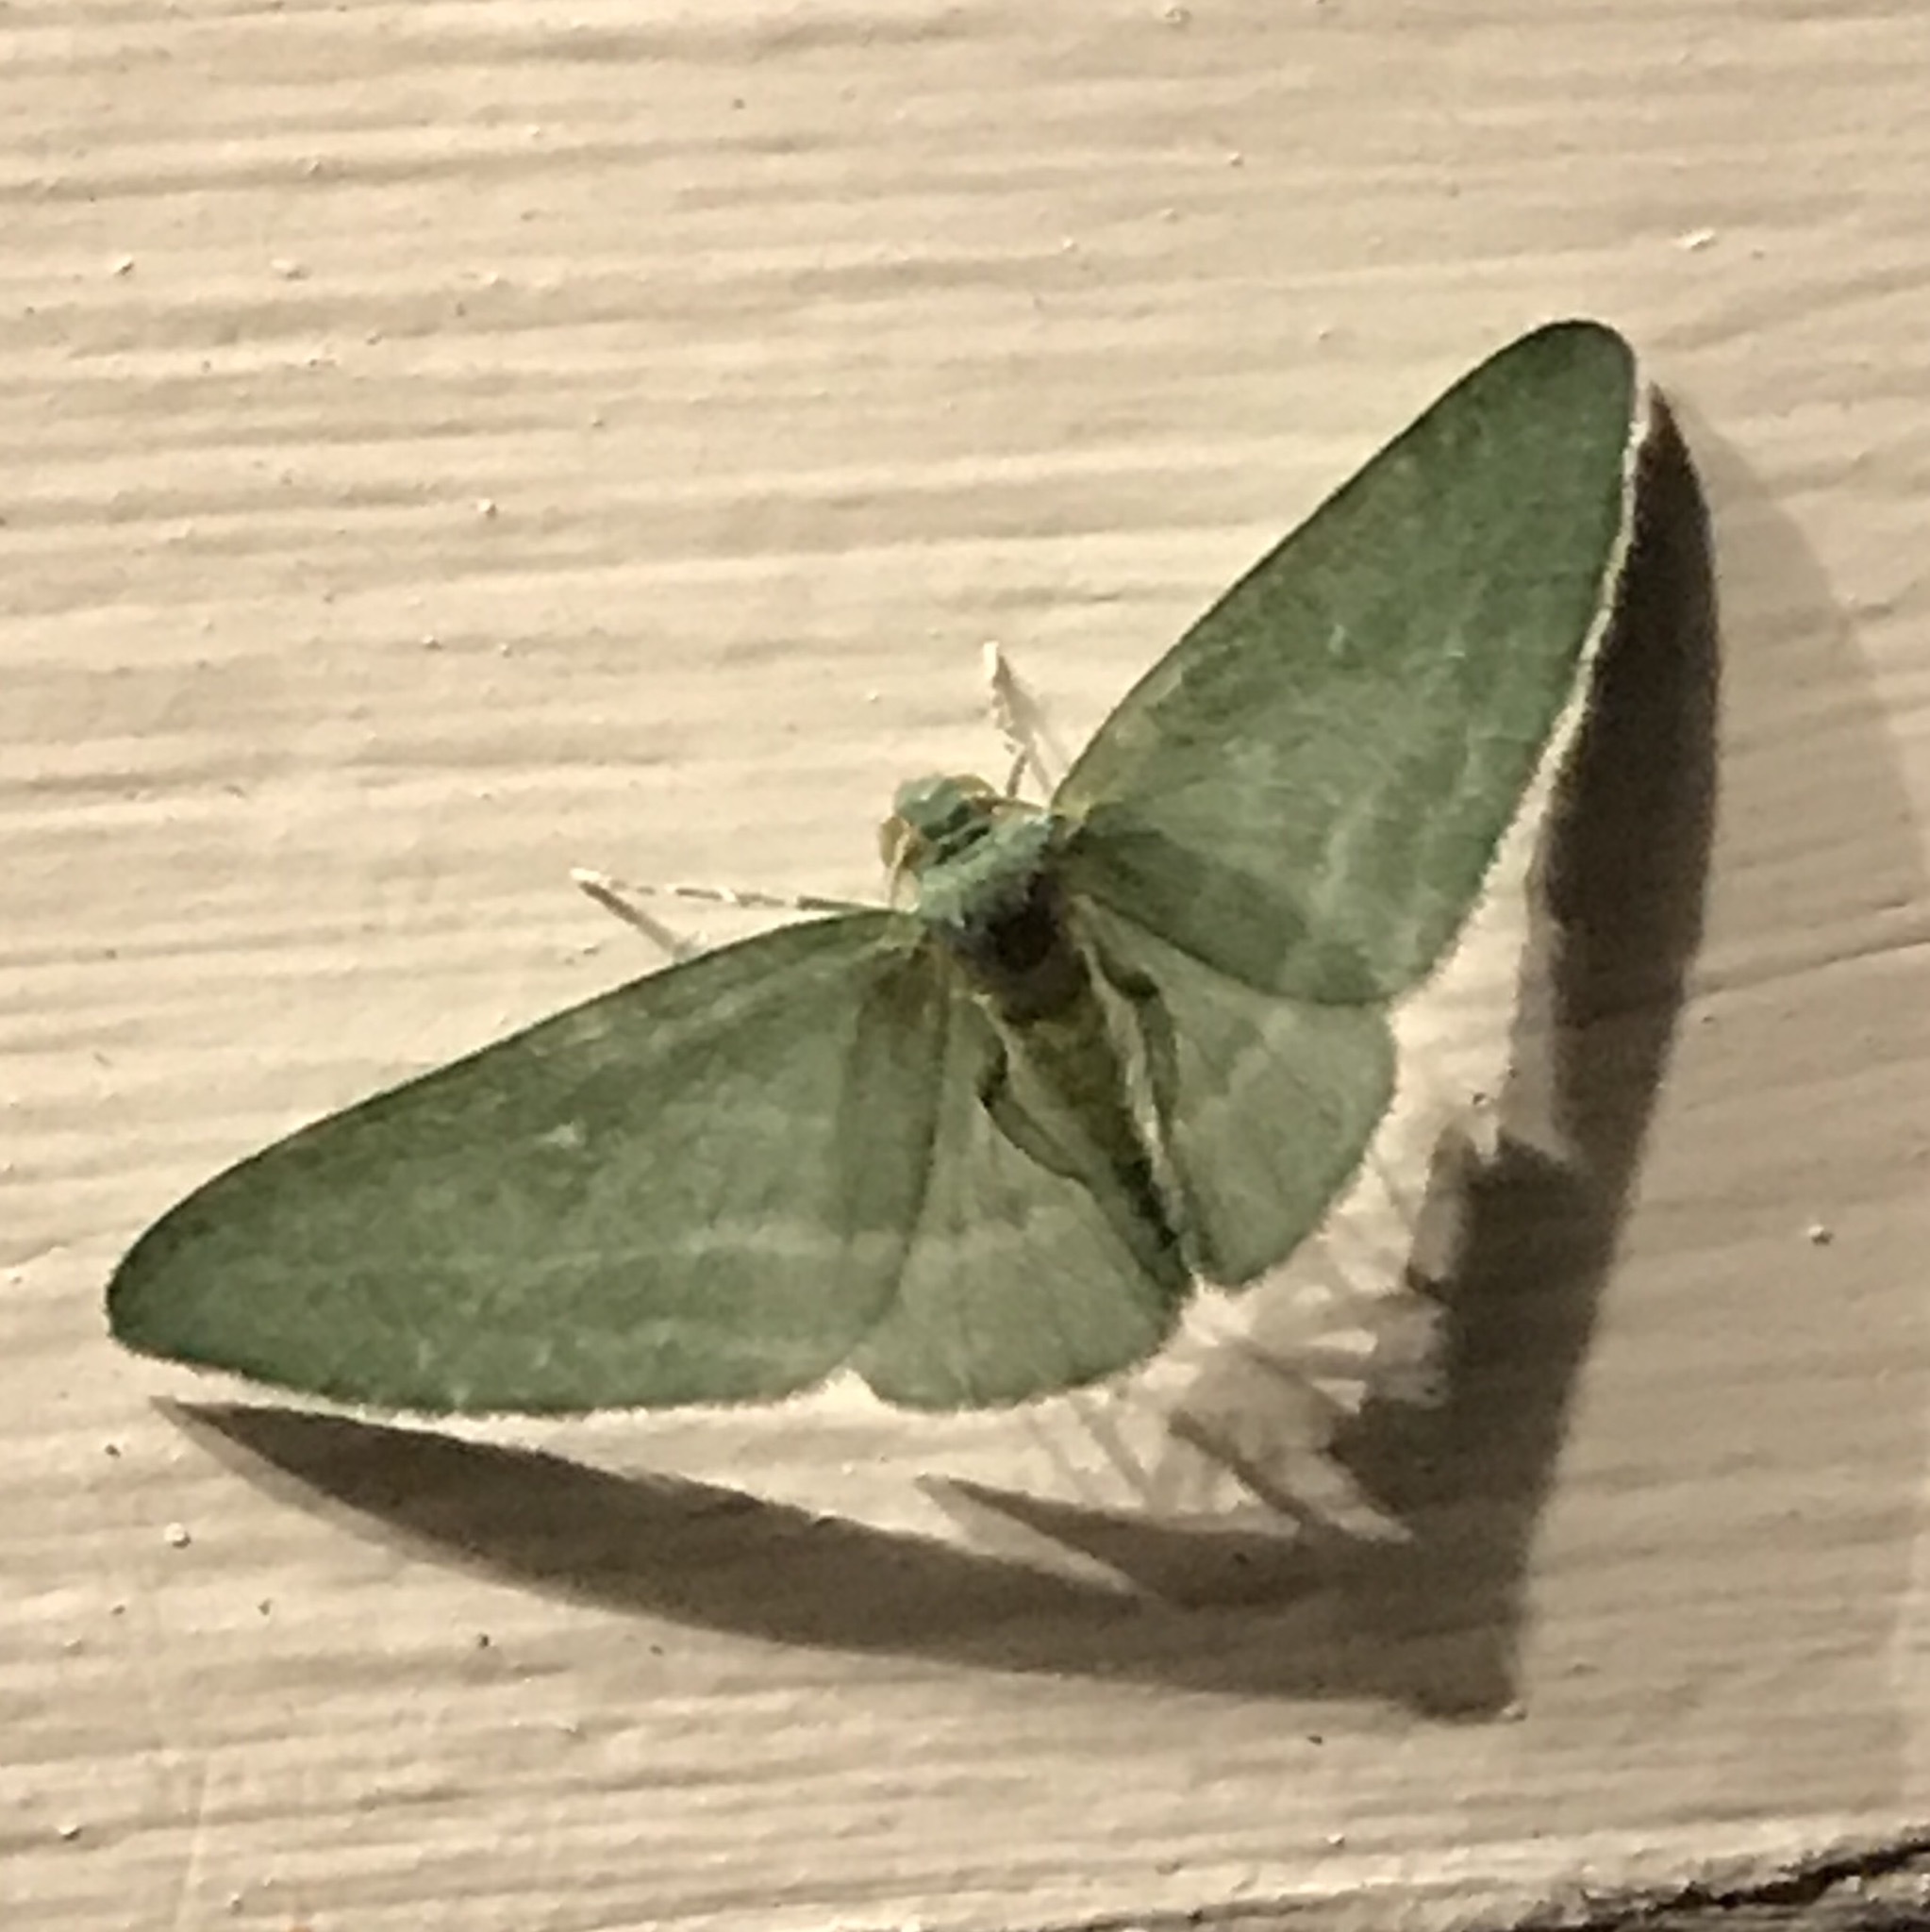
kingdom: Animalia
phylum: Arthropoda
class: Insecta
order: Lepidoptera
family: Geometridae
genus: Dyspteris
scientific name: Dyspteris abortivaria
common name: Bad-wing
